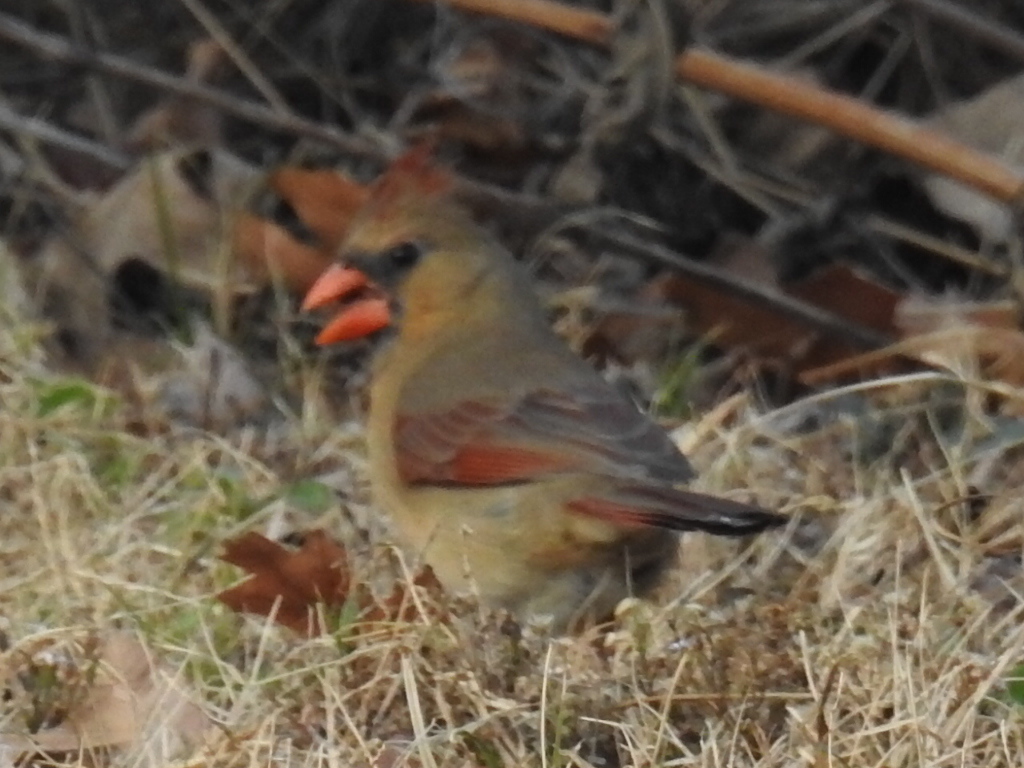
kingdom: Animalia
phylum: Chordata
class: Aves
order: Passeriformes
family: Cardinalidae
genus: Cardinalis
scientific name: Cardinalis cardinalis
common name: Northern cardinal
